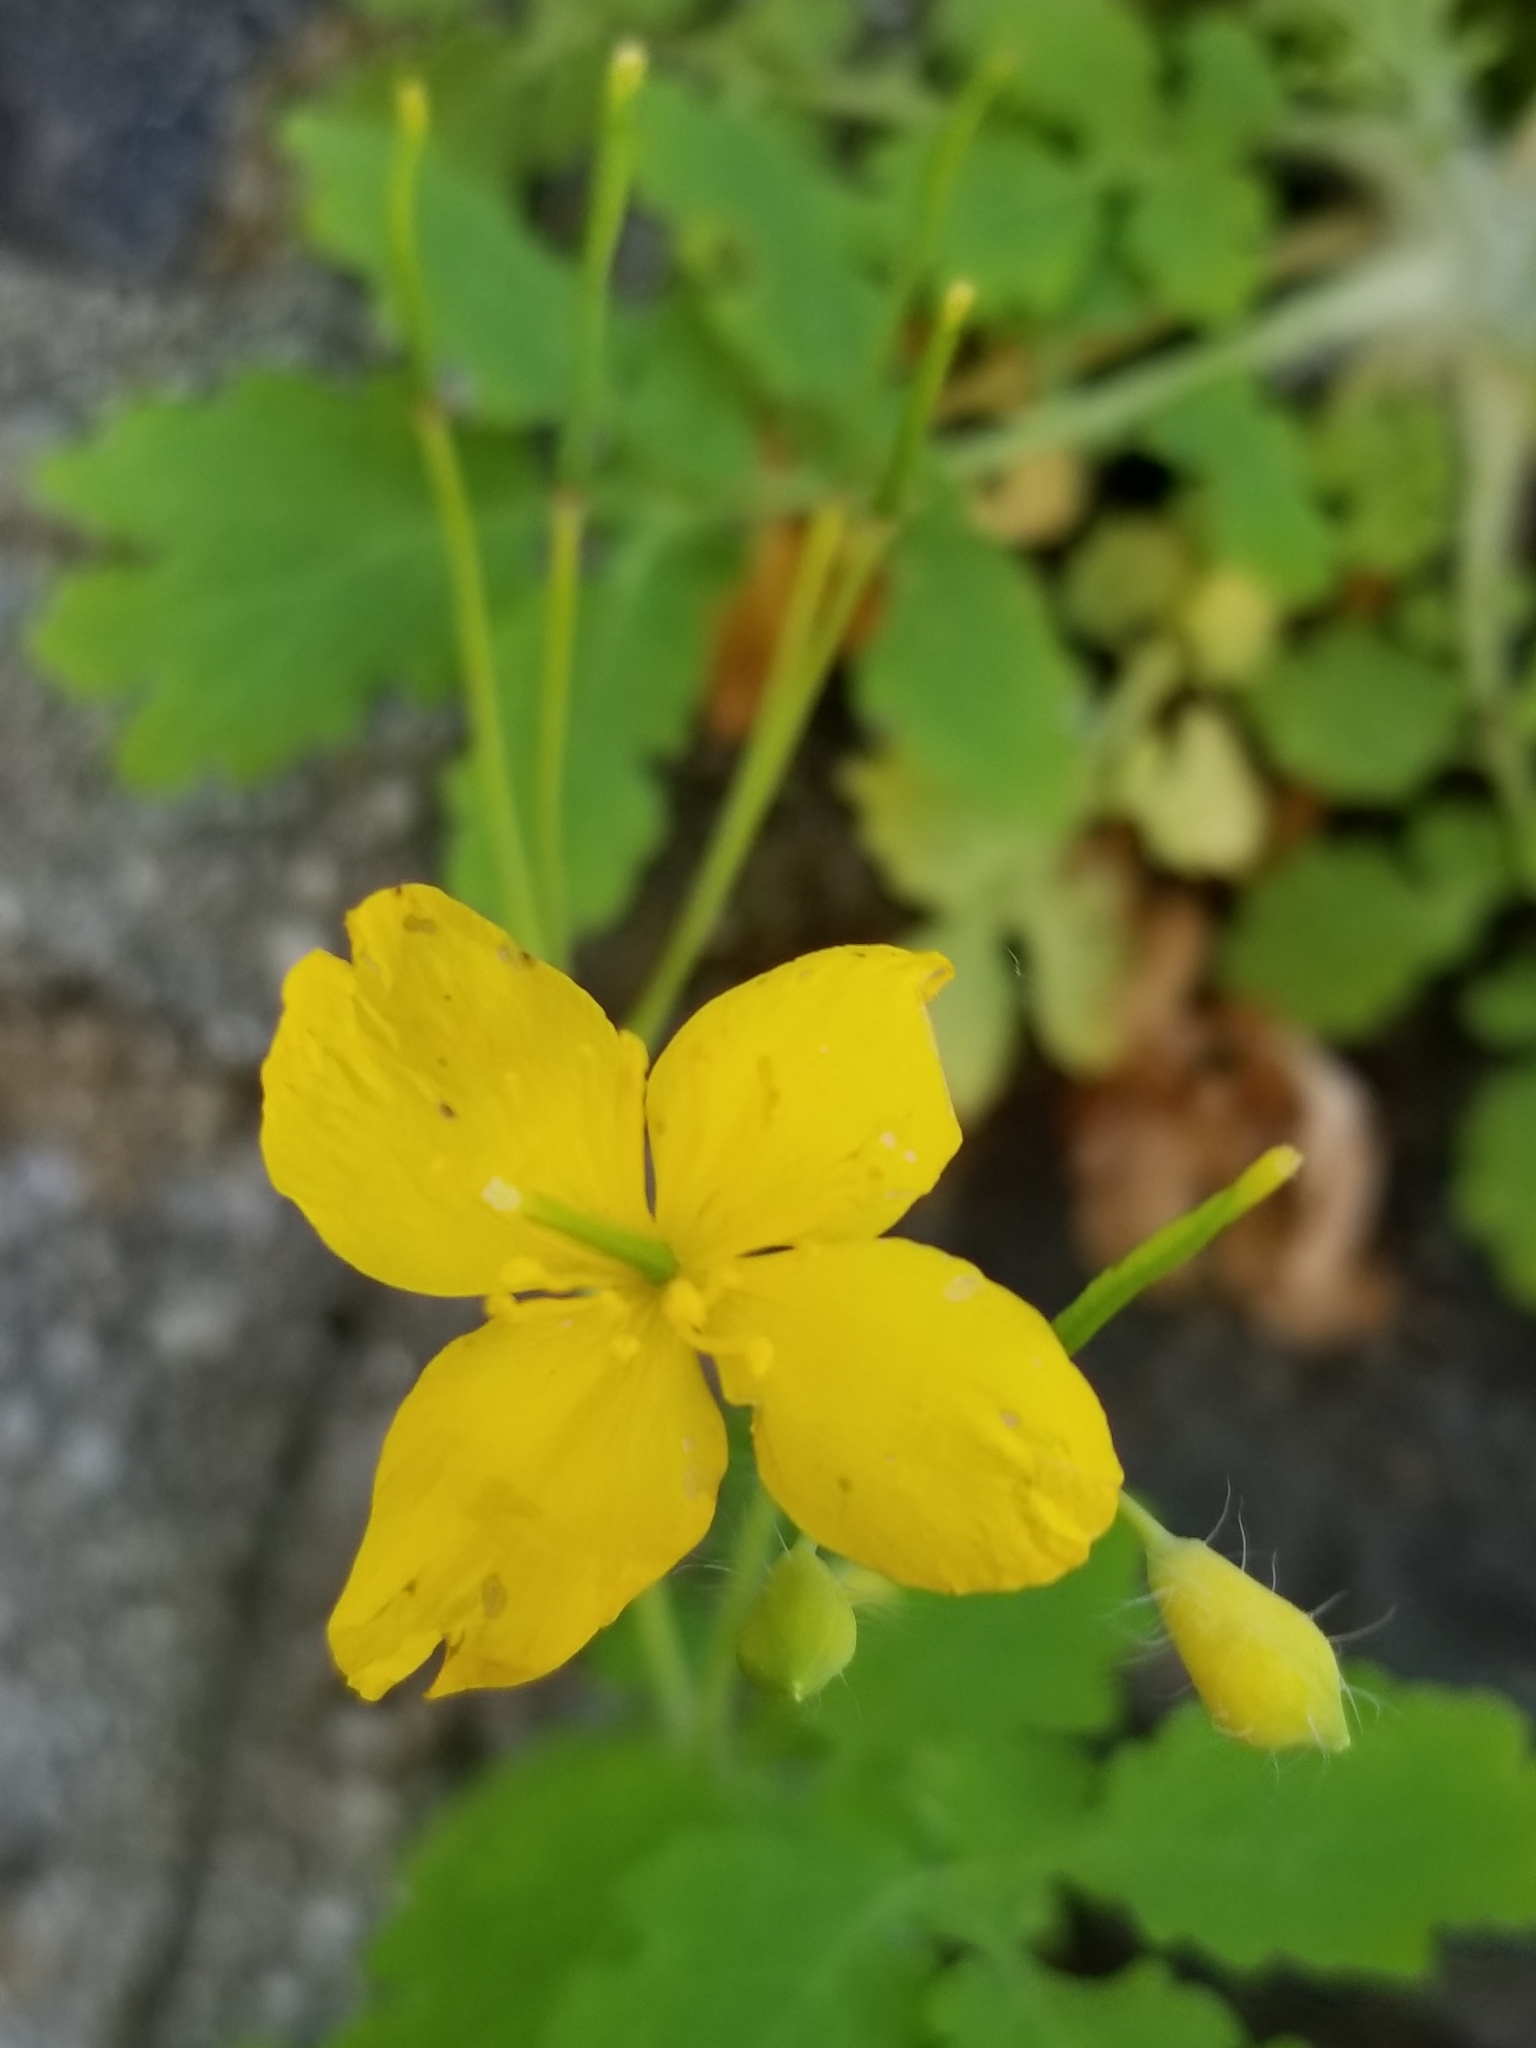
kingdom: Plantae
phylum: Tracheophyta
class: Magnoliopsida
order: Ranunculales
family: Papaveraceae
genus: Chelidonium
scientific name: Chelidonium majus
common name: Greater celandine
